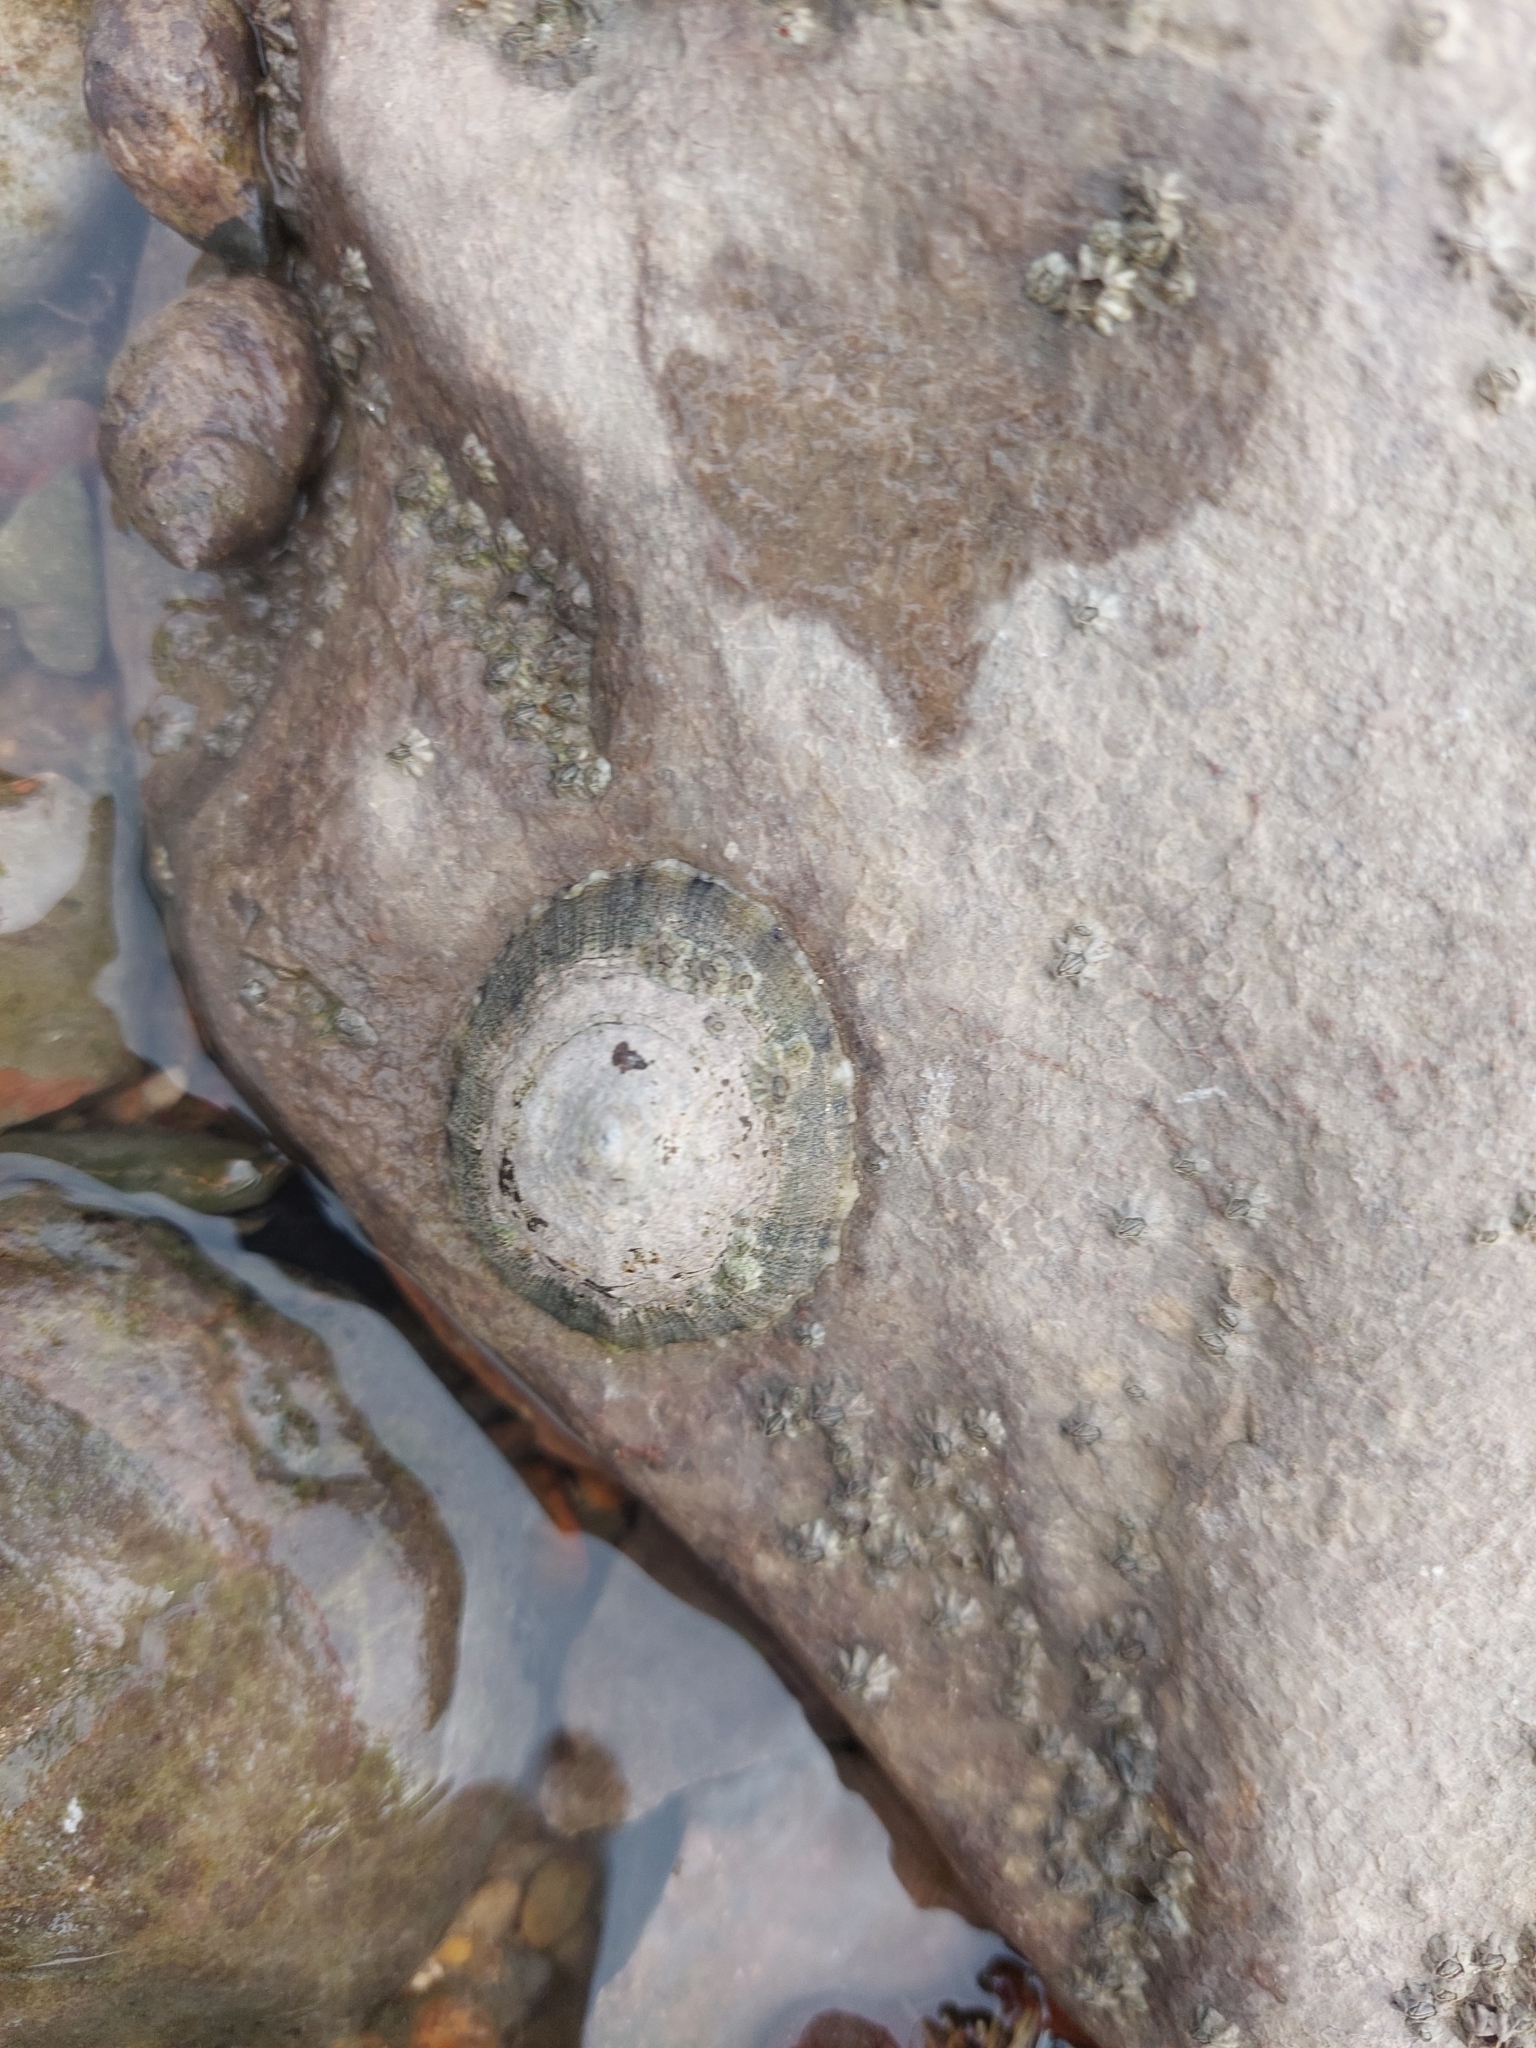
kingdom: Animalia
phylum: Mollusca
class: Gastropoda
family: Patellidae
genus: Patella
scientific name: Patella vulgata
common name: Common limpet
